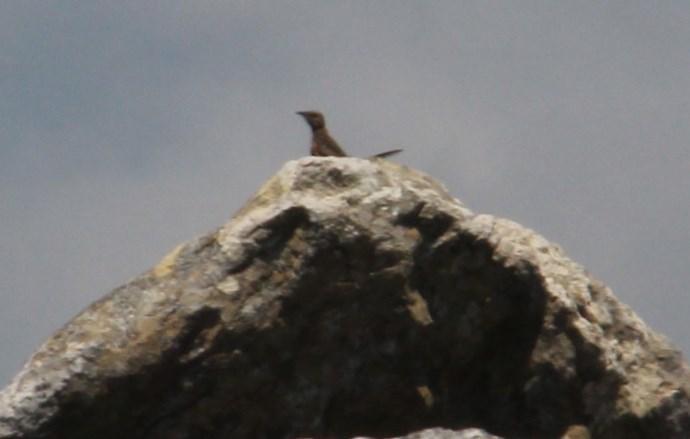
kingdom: Animalia
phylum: Chordata
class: Aves
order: Passeriformes
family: Chaetopidae
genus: Chaetops
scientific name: Chaetops frenatus
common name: Cape rockjumper
